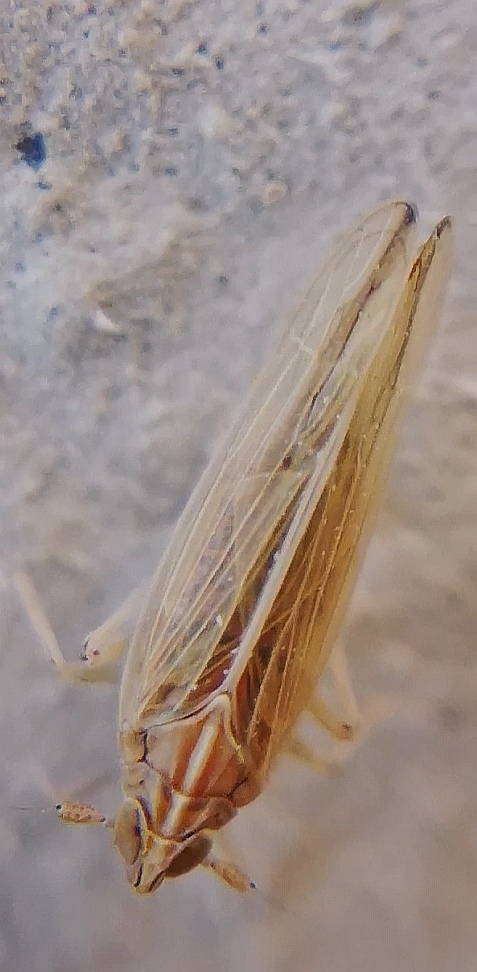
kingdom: Animalia
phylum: Arthropoda
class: Insecta
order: Hemiptera
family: Delphacidae
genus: Stenocranus
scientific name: Stenocranus major
